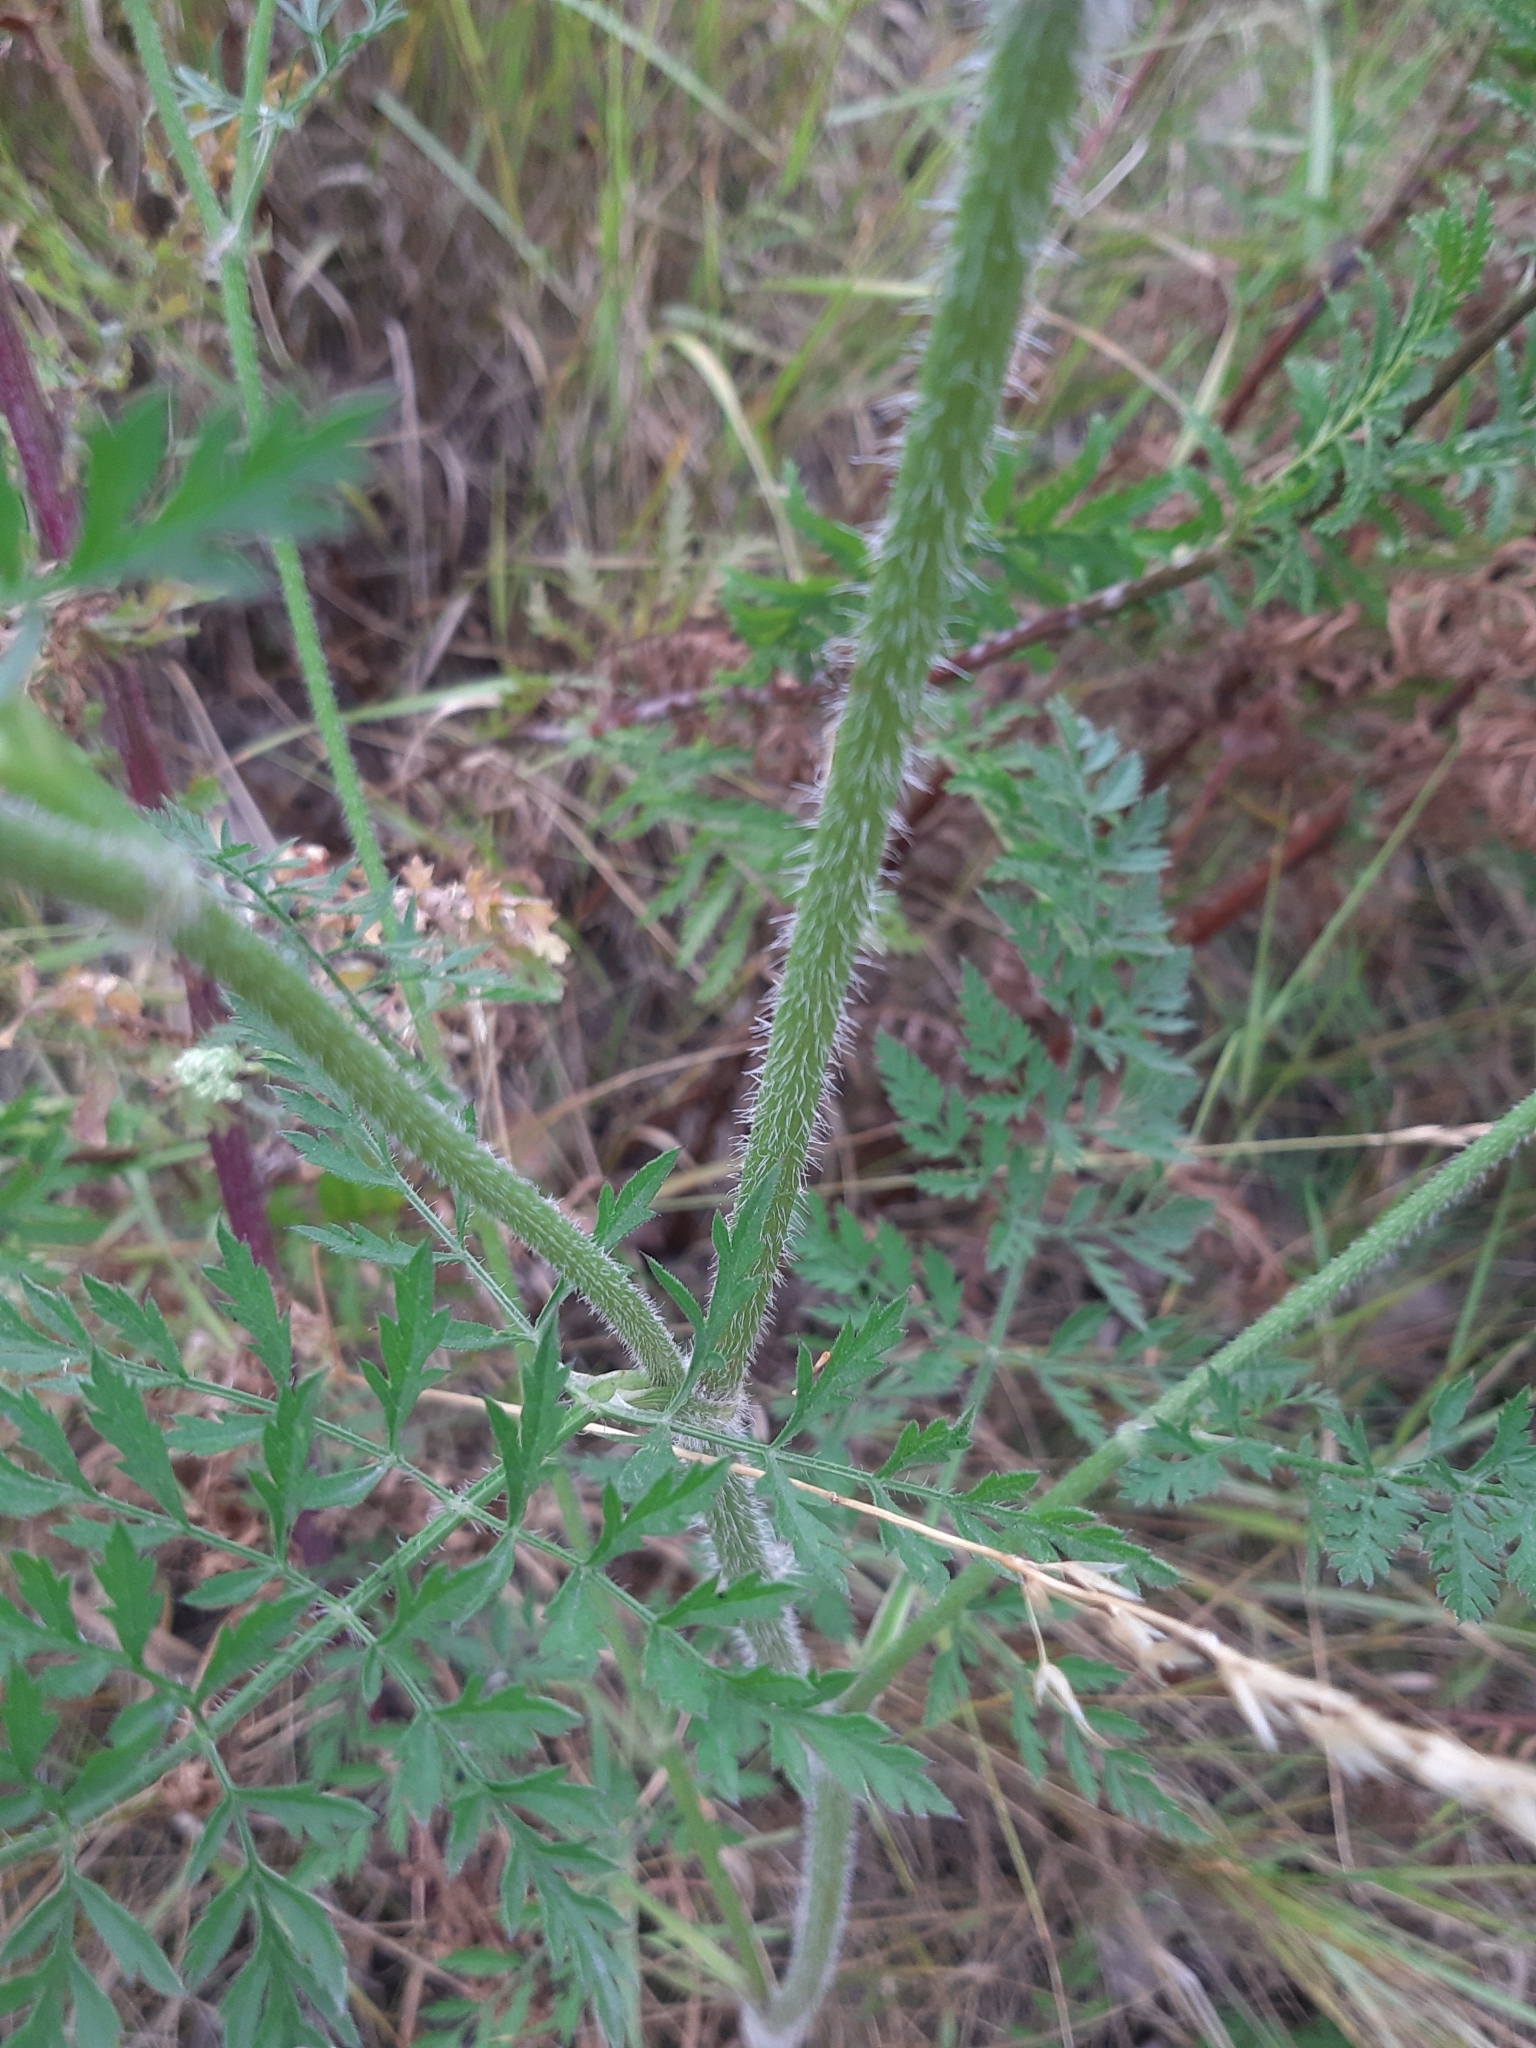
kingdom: Plantae
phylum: Tracheophyta
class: Magnoliopsida
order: Apiales
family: Apiaceae
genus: Daucus
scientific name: Daucus carota
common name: Wild carrot
